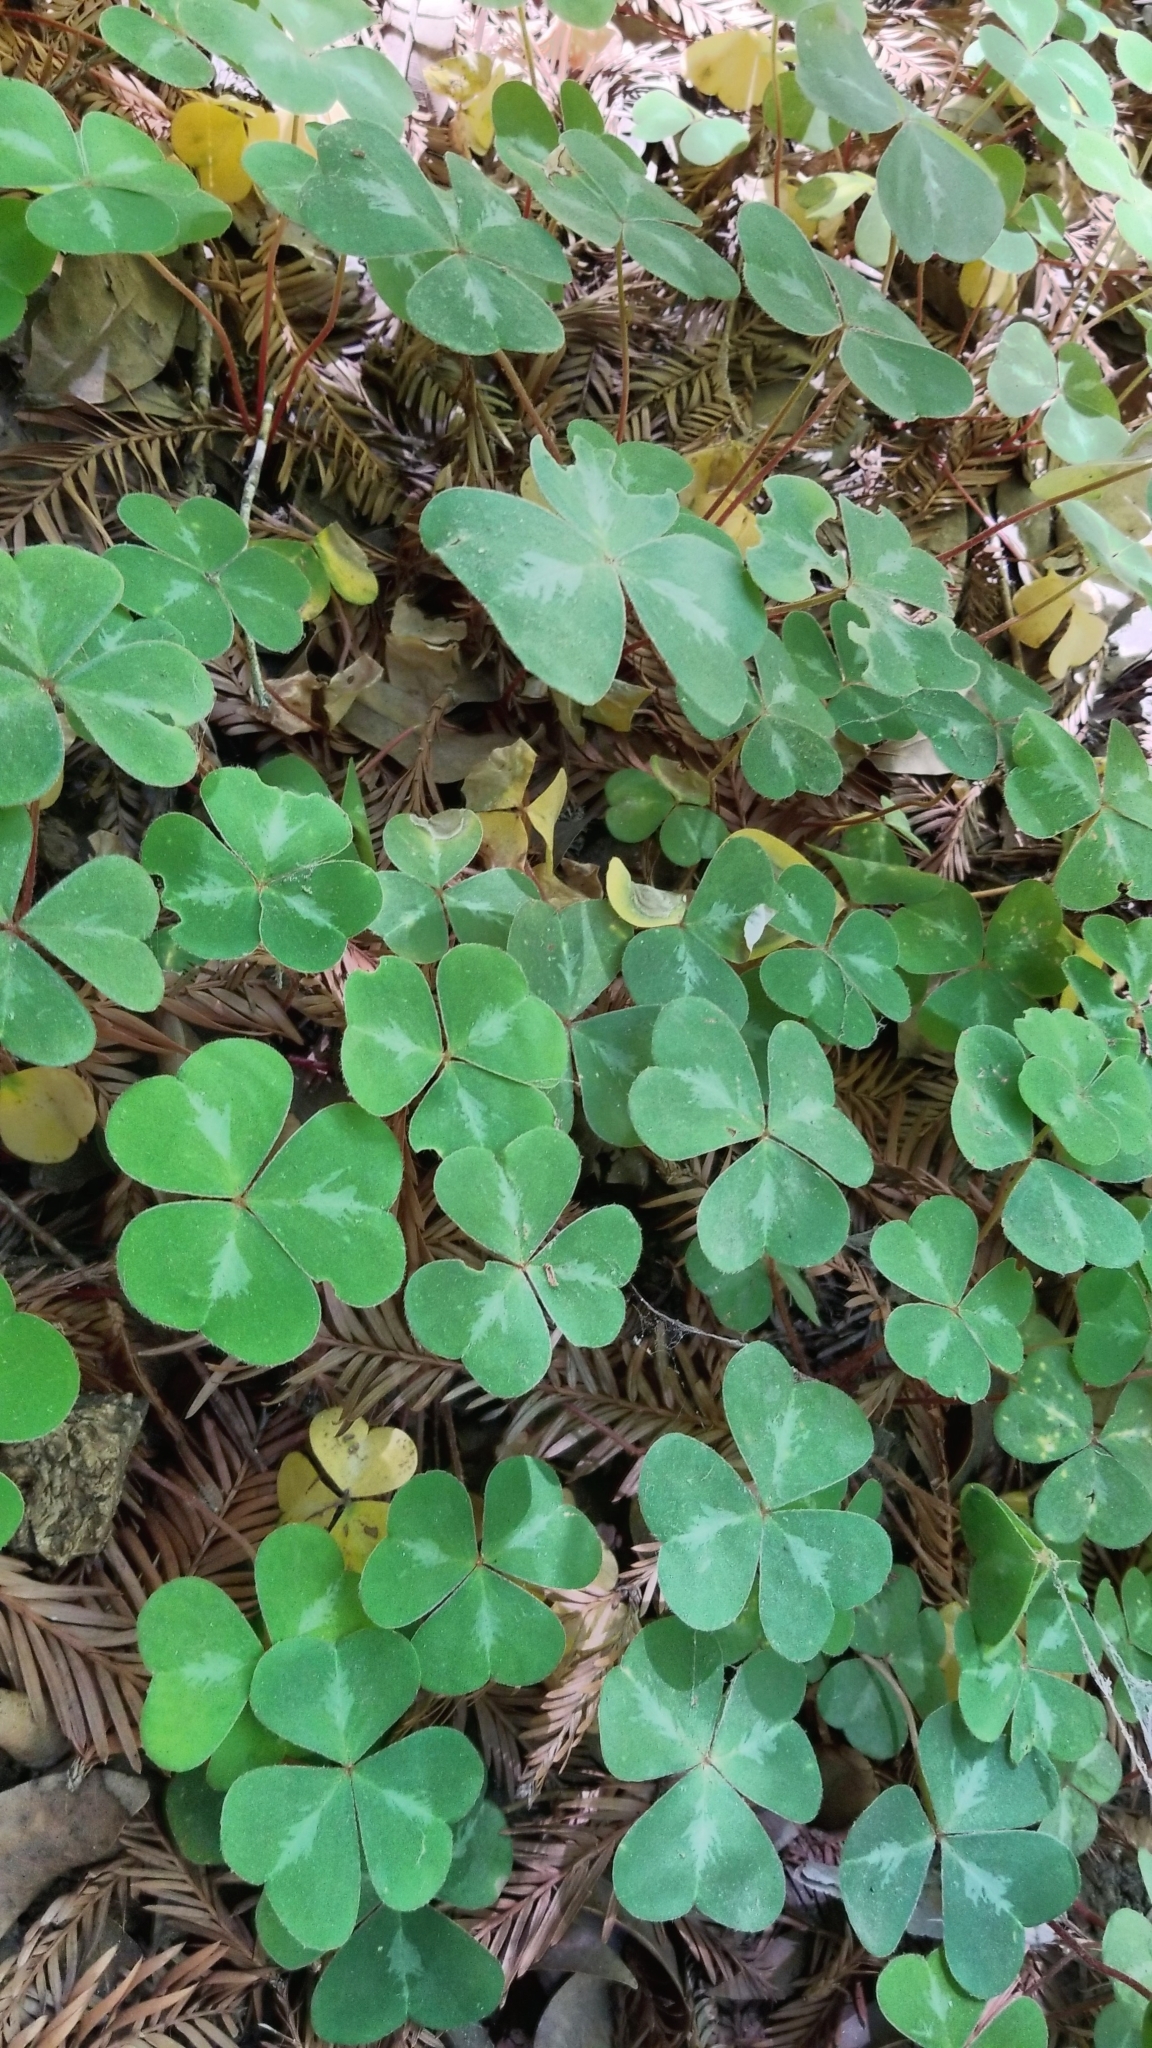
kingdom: Plantae
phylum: Tracheophyta
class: Magnoliopsida
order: Oxalidales
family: Oxalidaceae
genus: Oxalis
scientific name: Oxalis oregana
